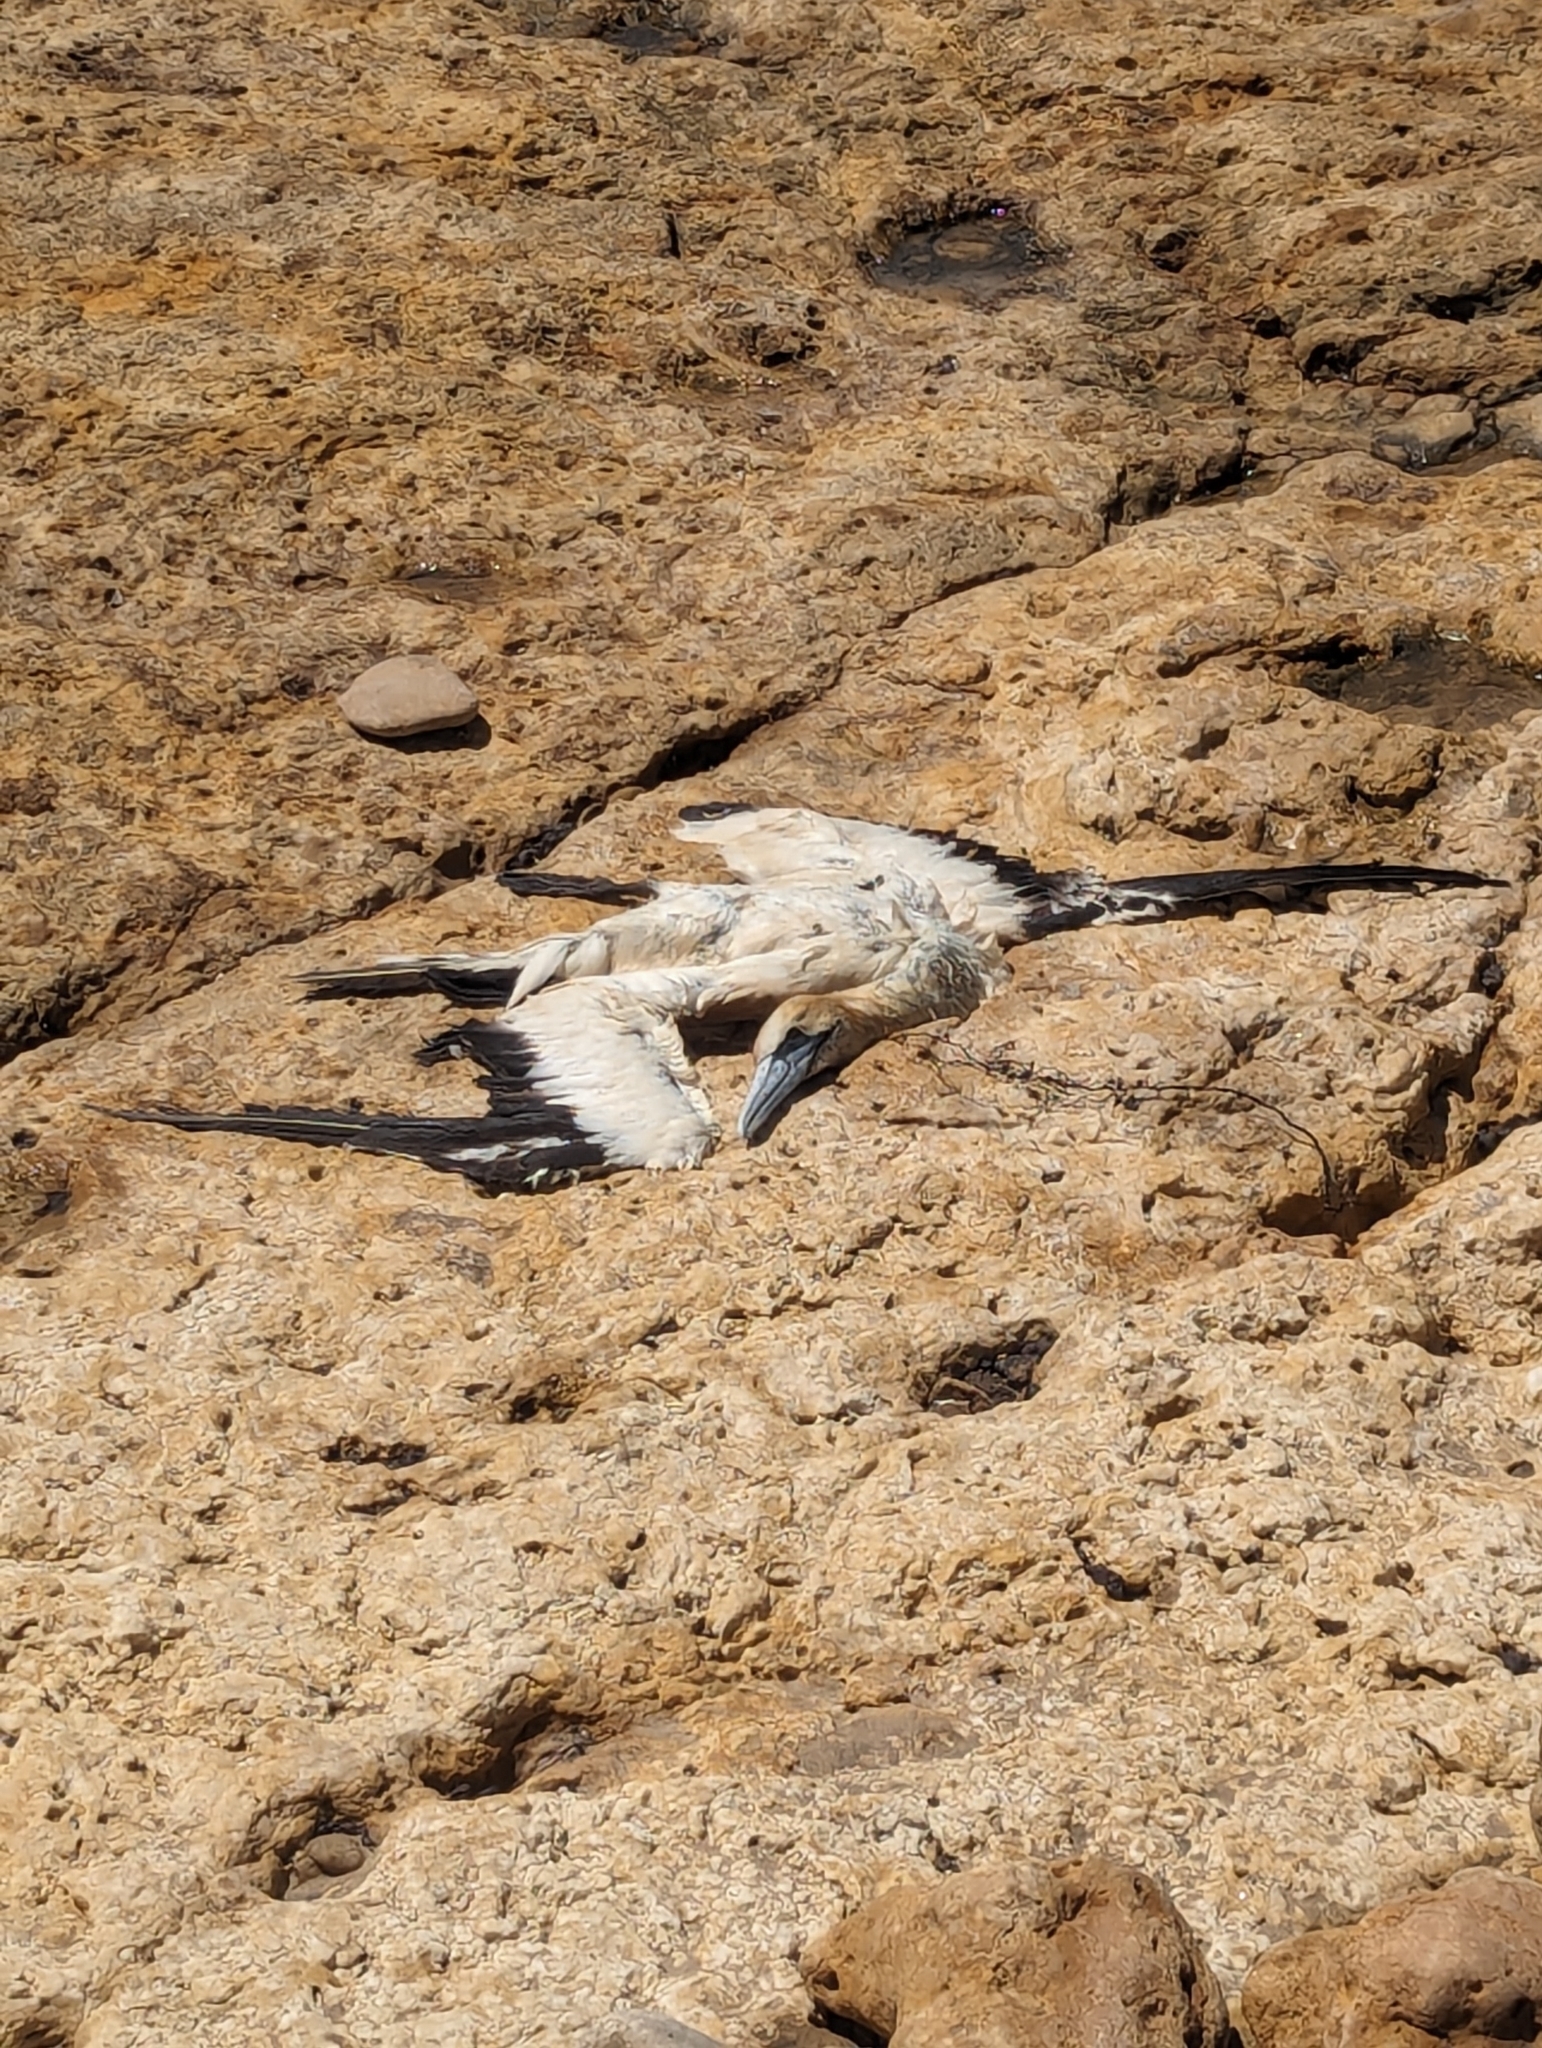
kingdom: Animalia
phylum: Chordata
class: Aves
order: Suliformes
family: Sulidae
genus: Morus
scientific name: Morus serrator
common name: Australasian gannet
